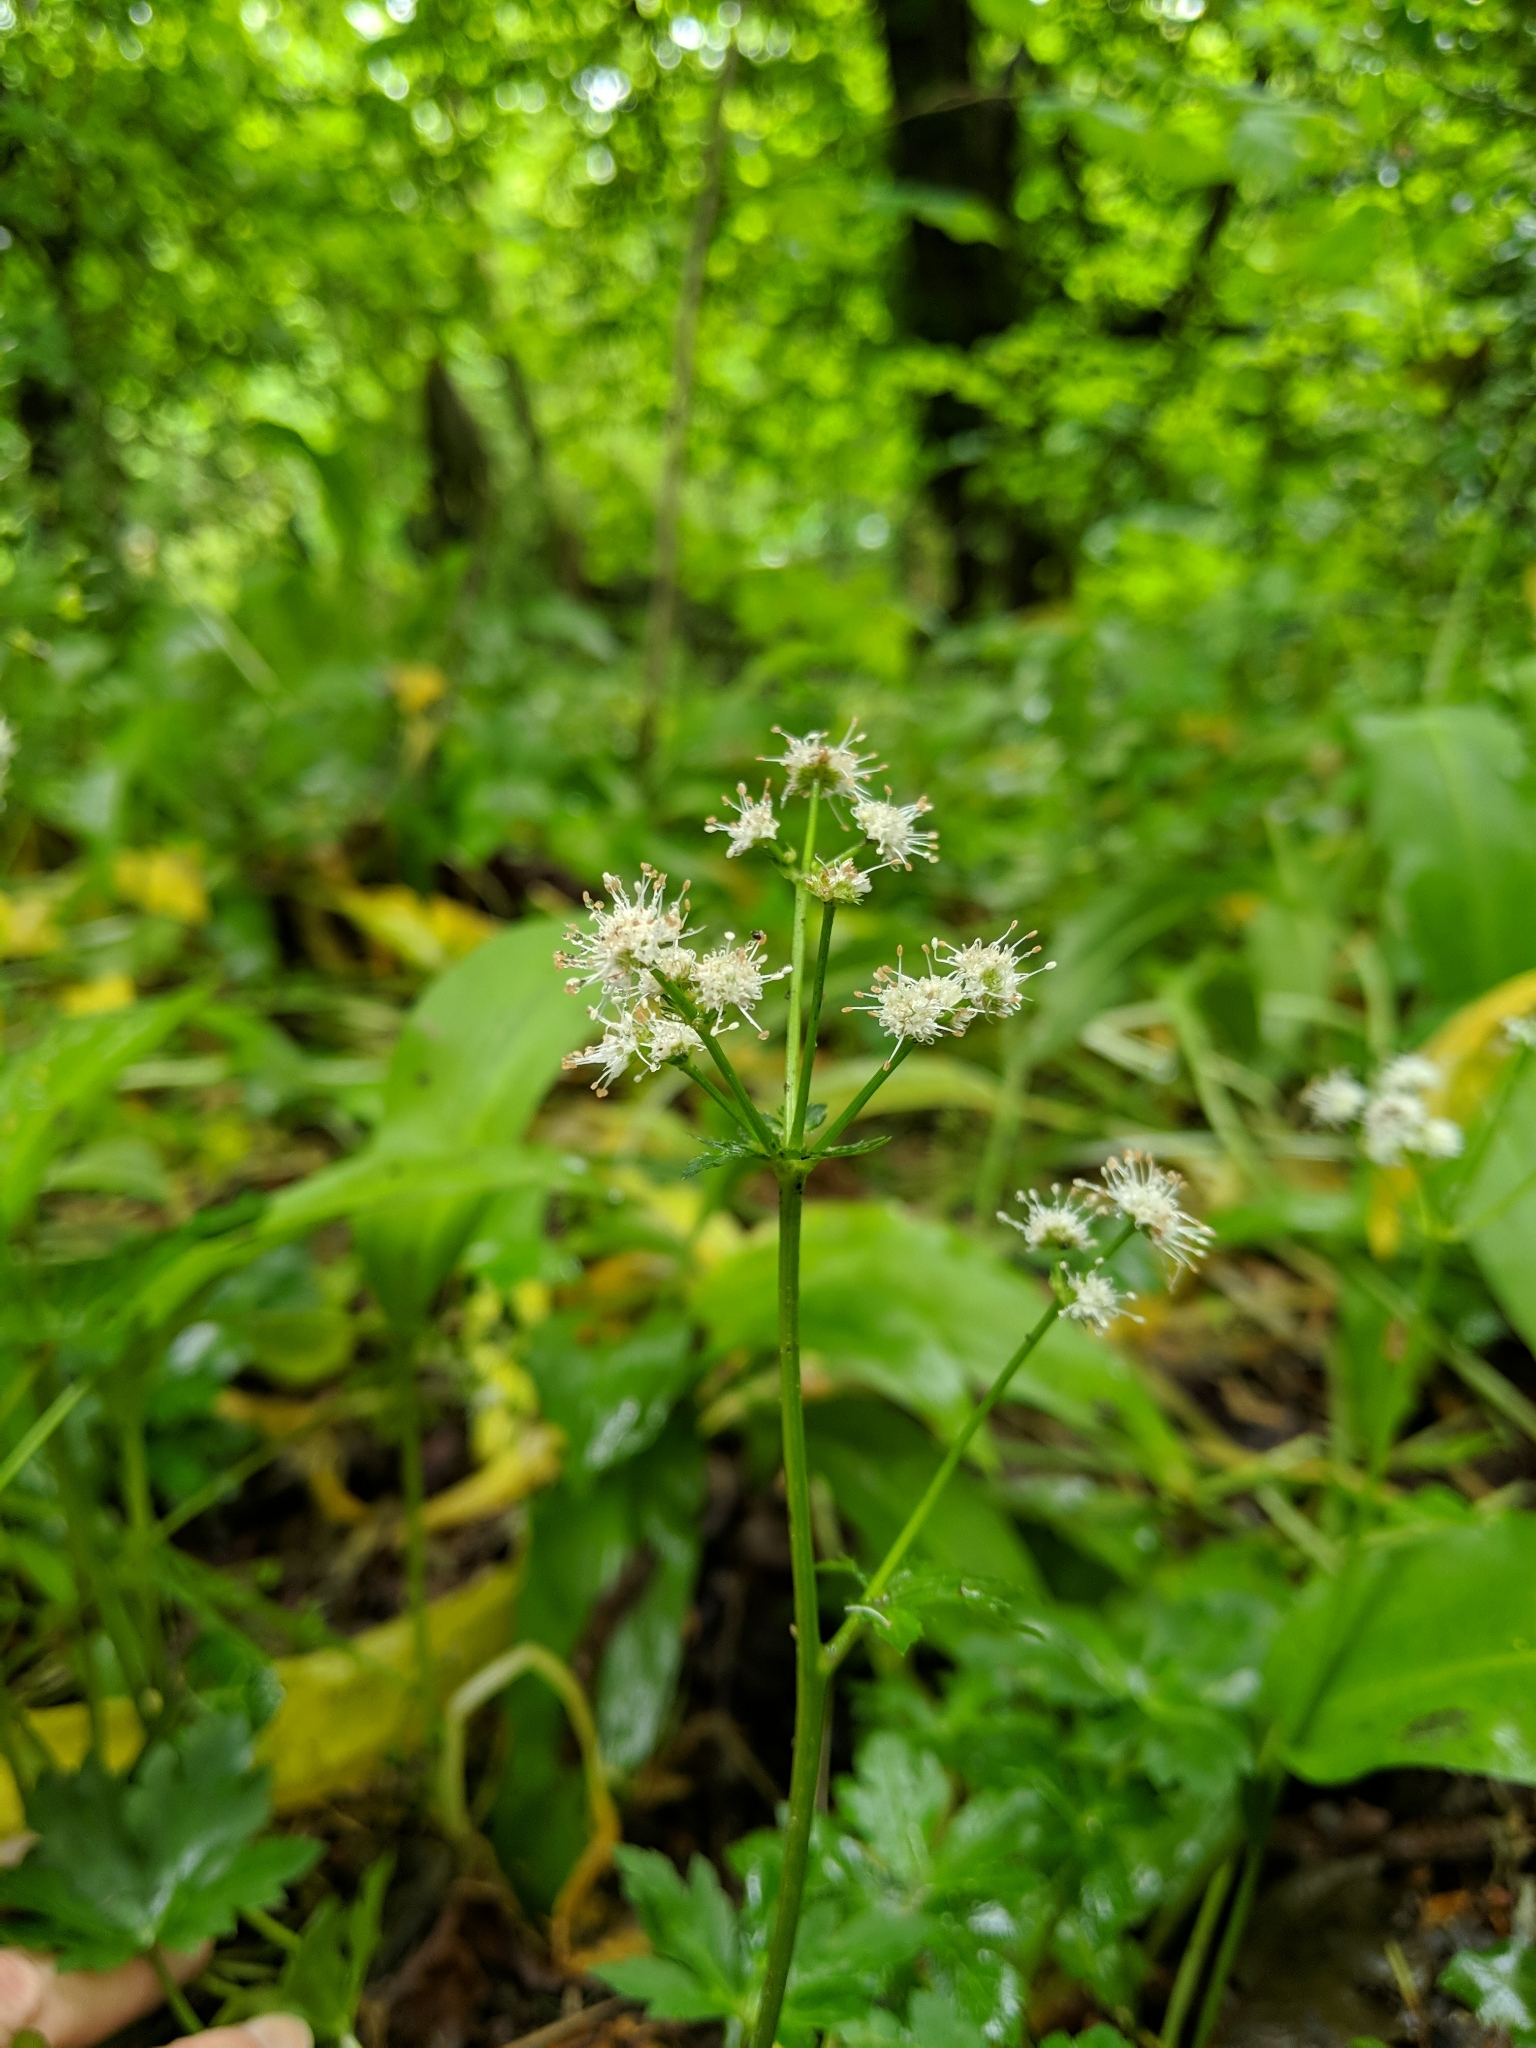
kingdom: Plantae
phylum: Tracheophyta
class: Magnoliopsida
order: Apiales
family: Apiaceae
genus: Sanicula
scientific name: Sanicula europaea
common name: Sanicle
